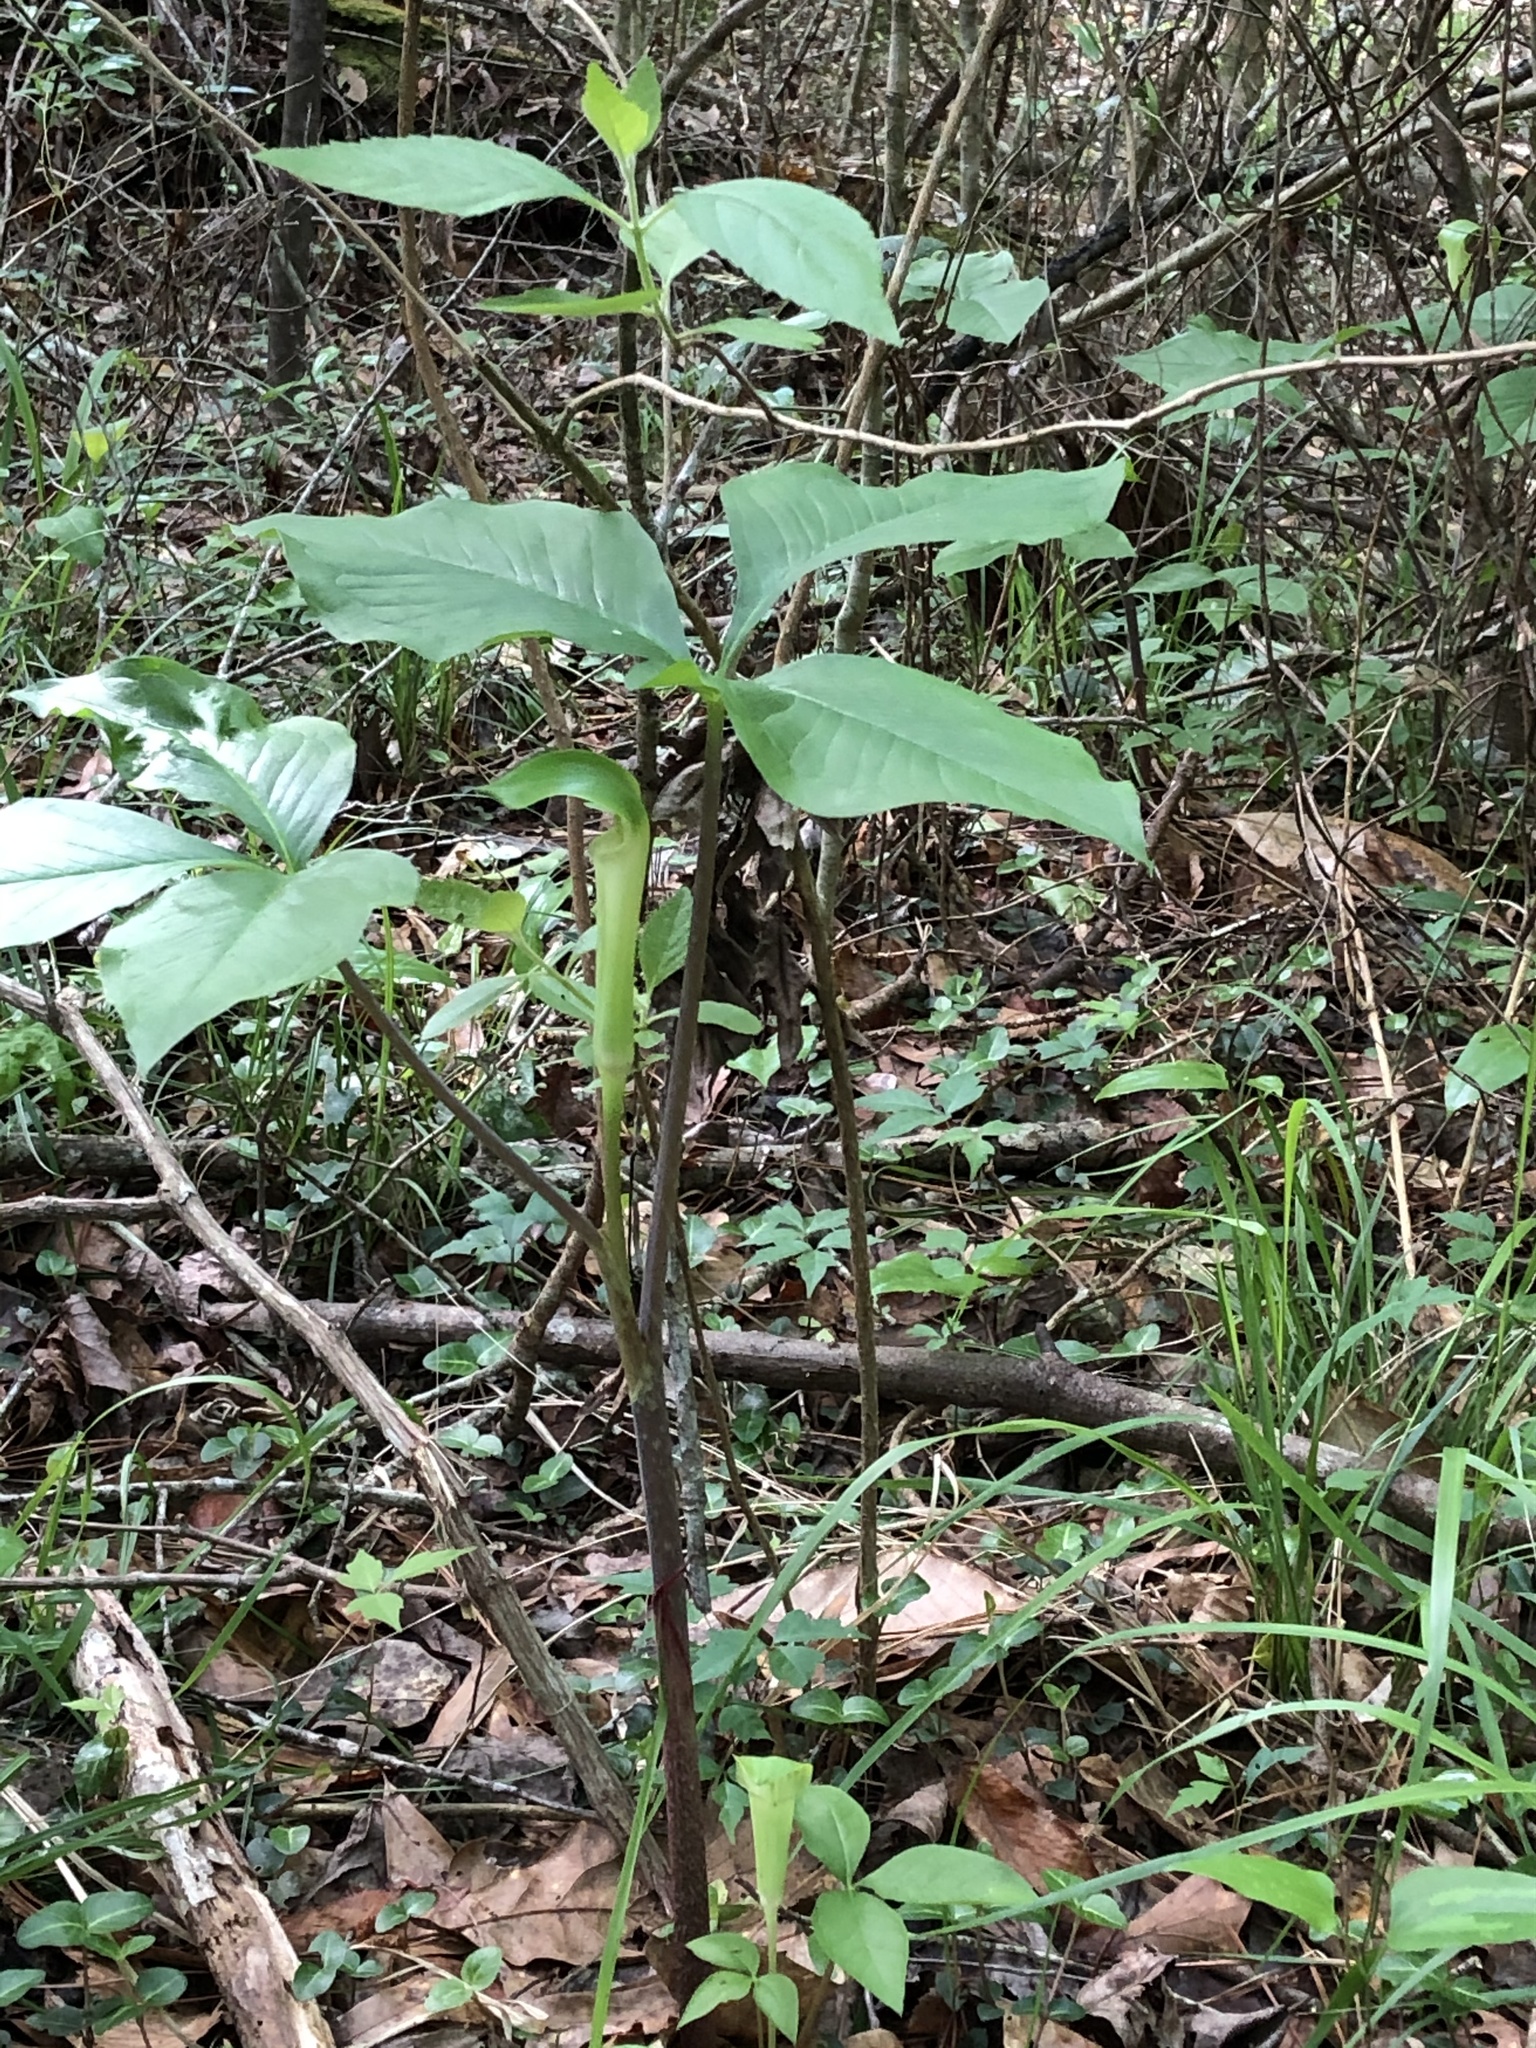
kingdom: Plantae
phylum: Tracheophyta
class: Liliopsida
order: Alismatales
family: Araceae
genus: Arisaema
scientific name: Arisaema quinatum
